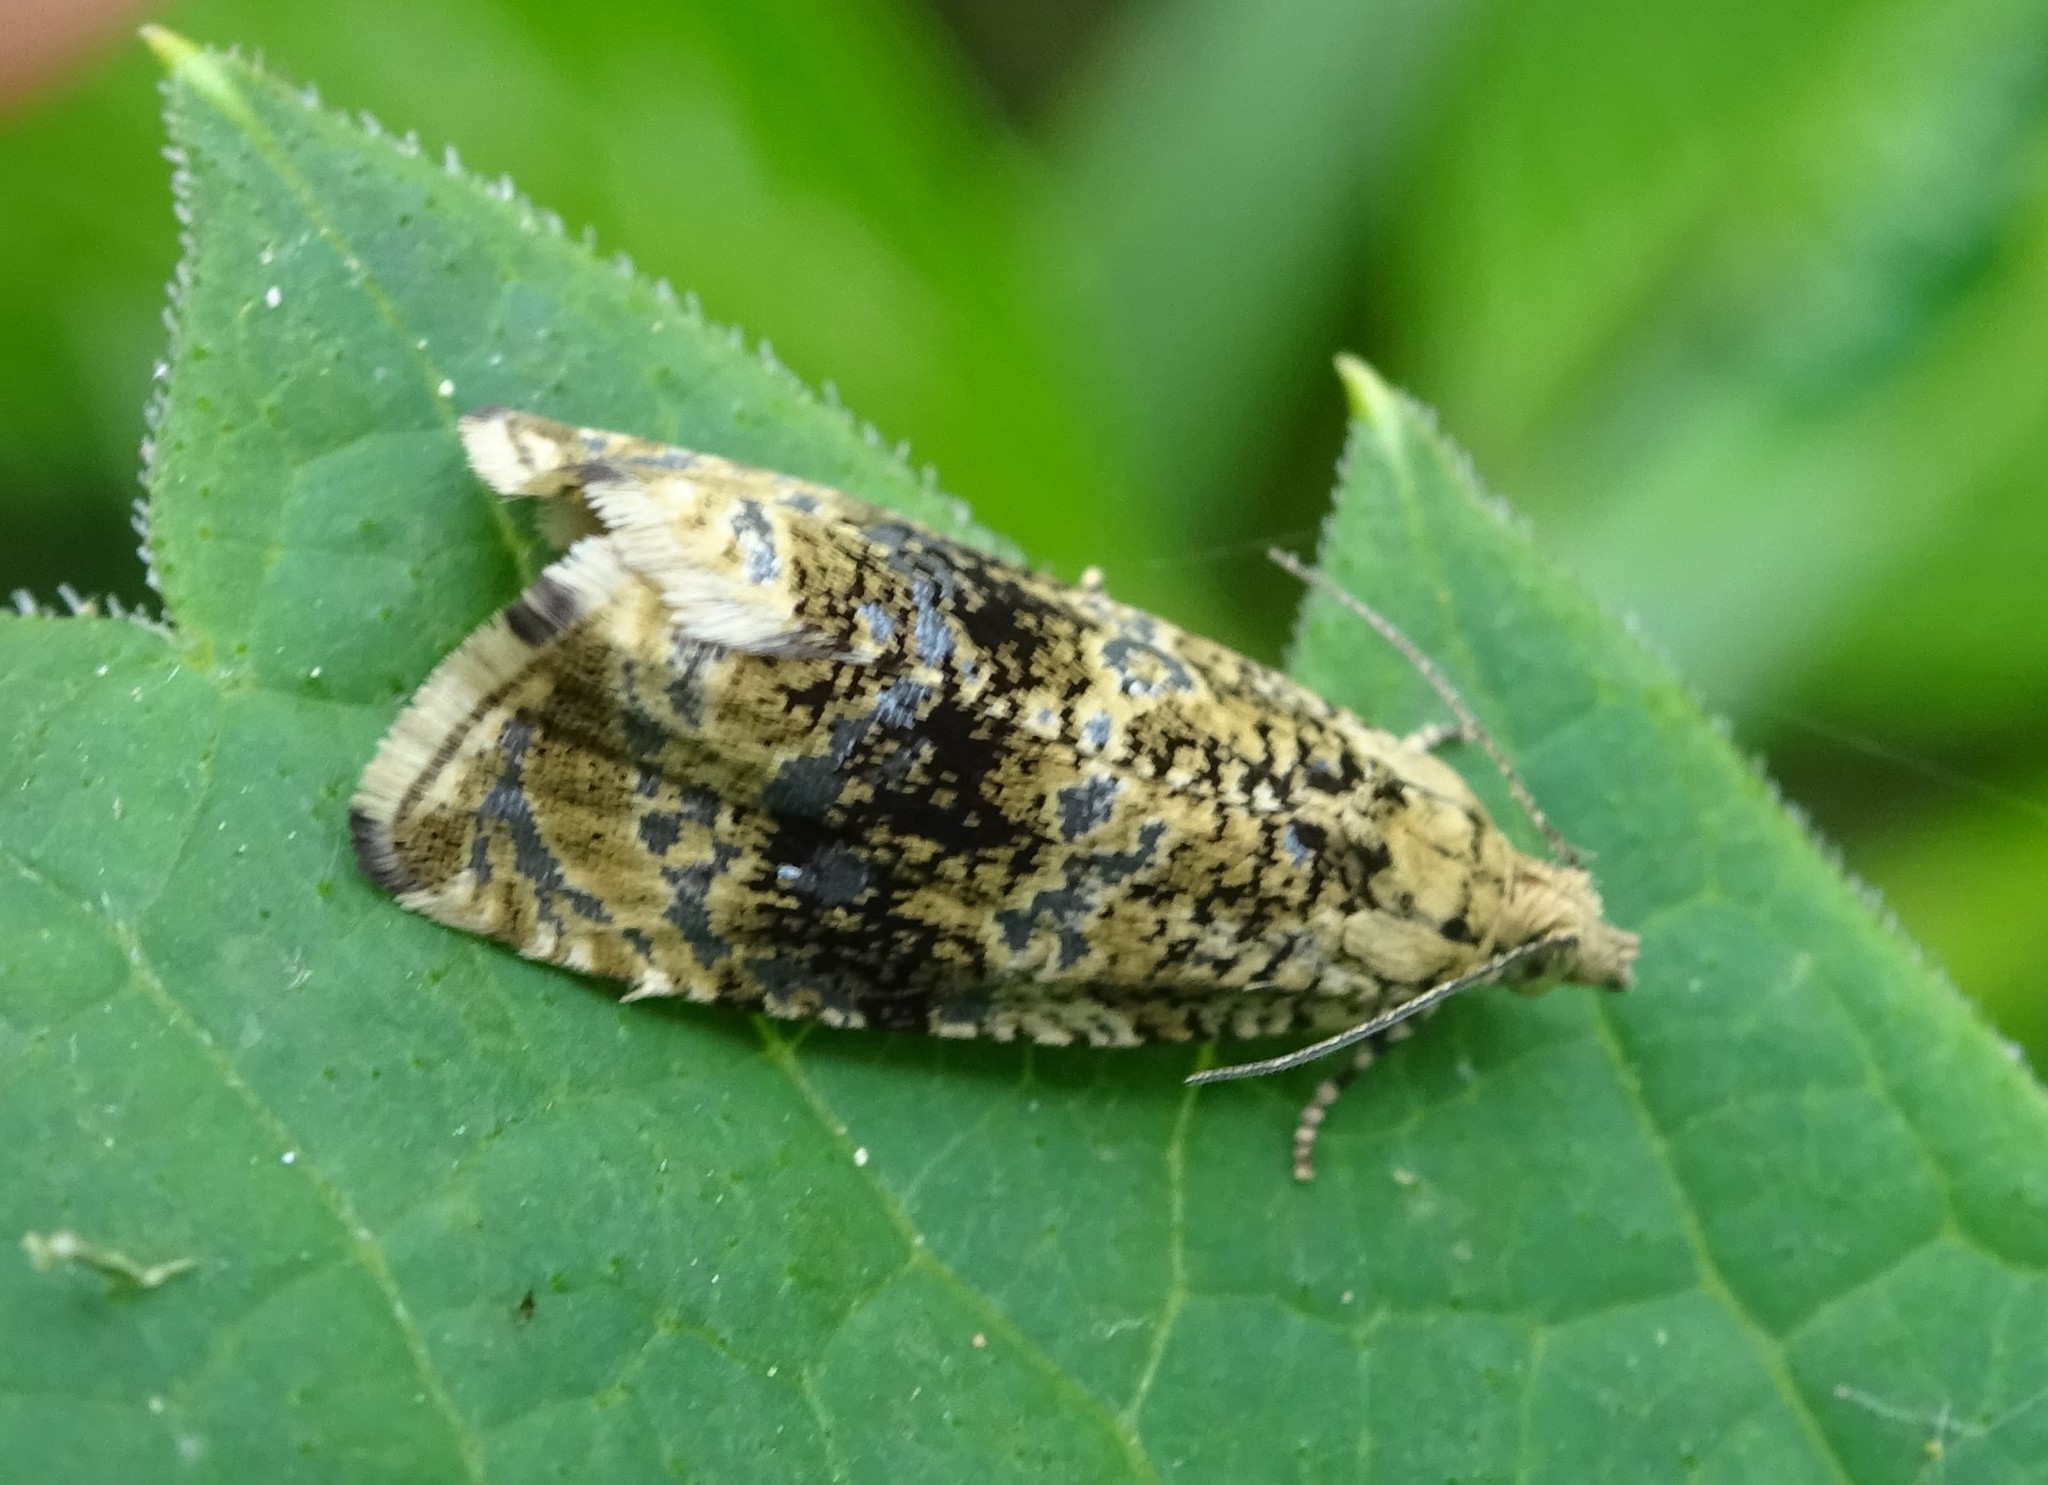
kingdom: Animalia
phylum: Arthropoda
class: Insecta
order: Lepidoptera
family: Tortricidae
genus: Syricoris
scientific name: Syricoris lacunana
